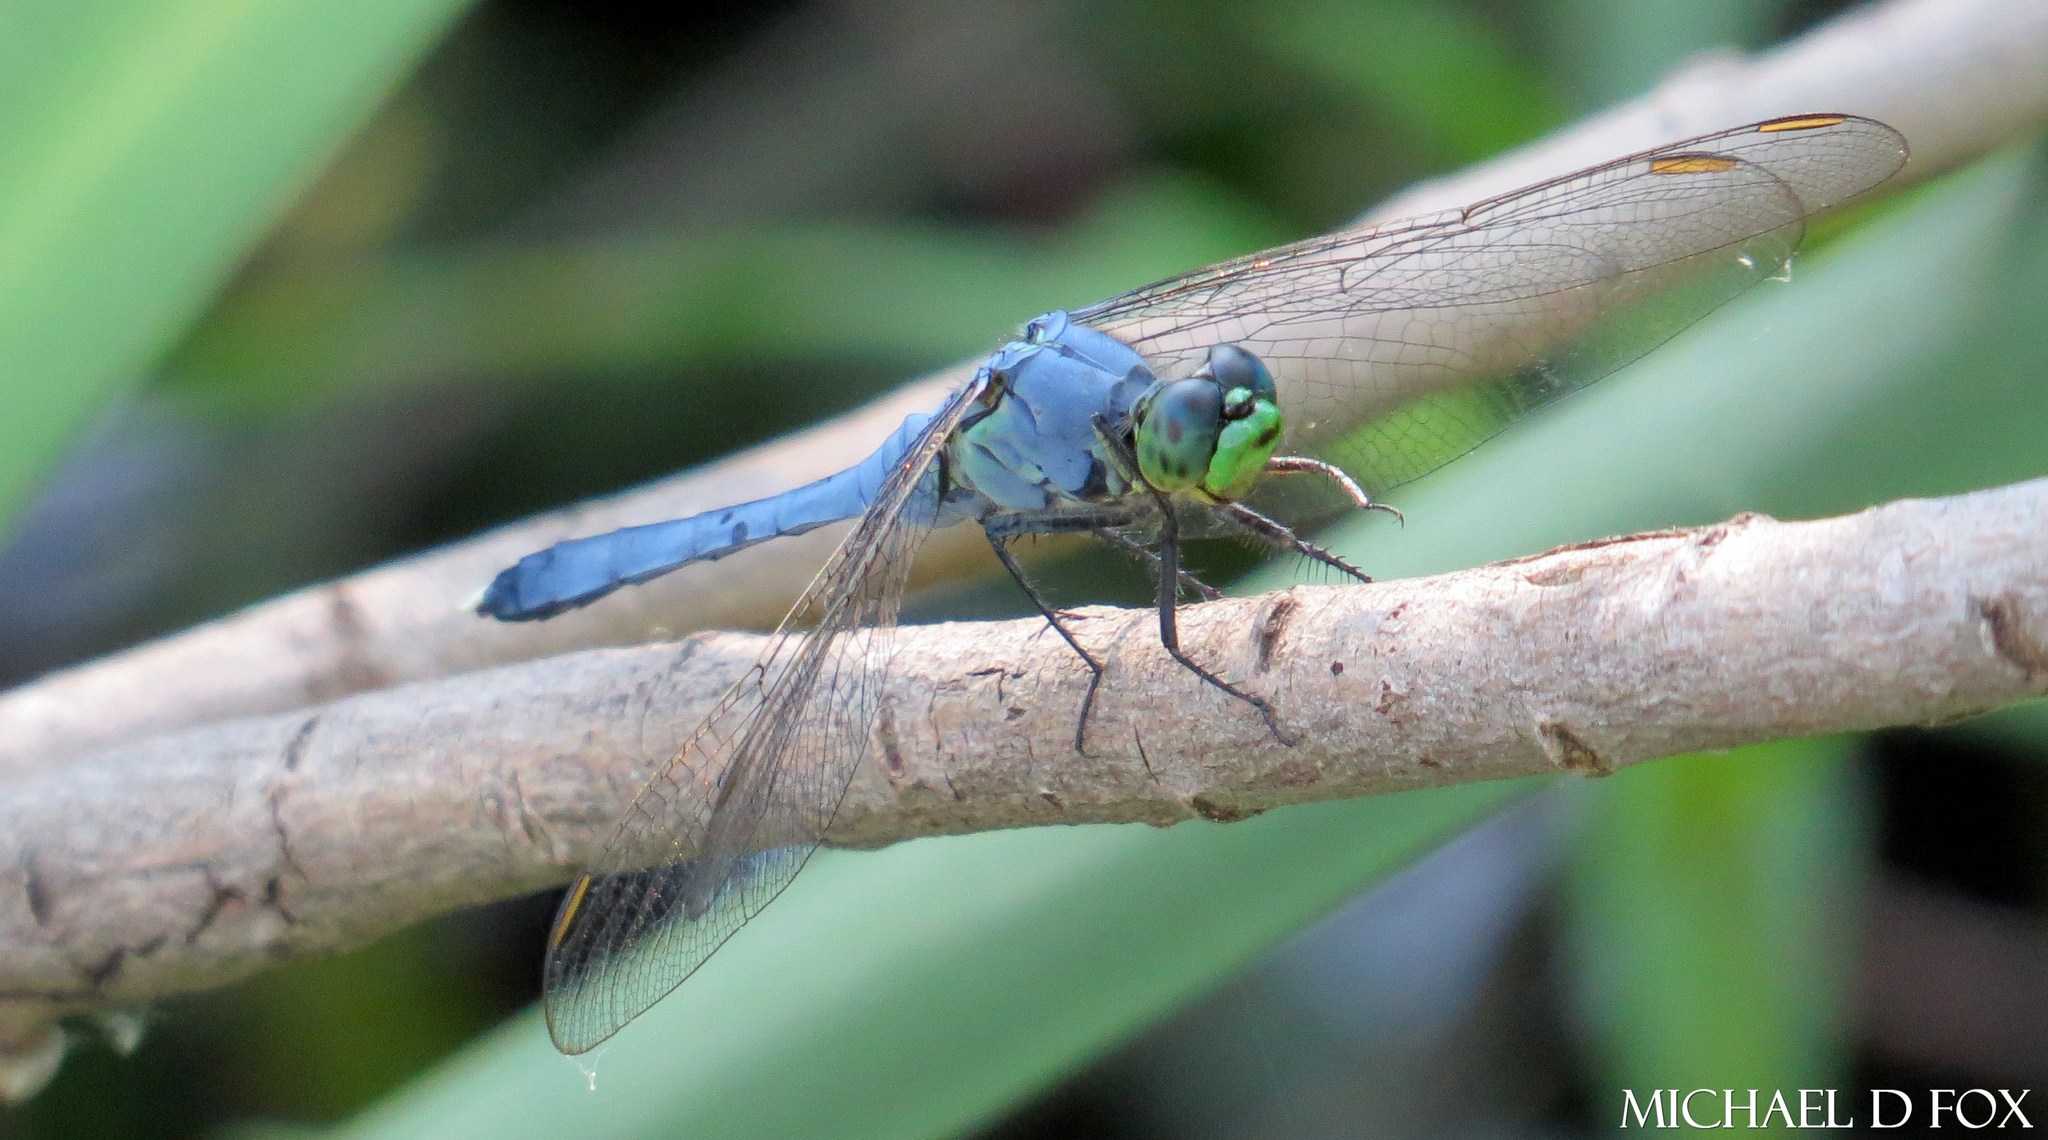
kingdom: Animalia
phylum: Arthropoda
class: Insecta
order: Odonata
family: Libellulidae
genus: Erythemis
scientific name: Erythemis simplicicollis
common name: Eastern pondhawk
